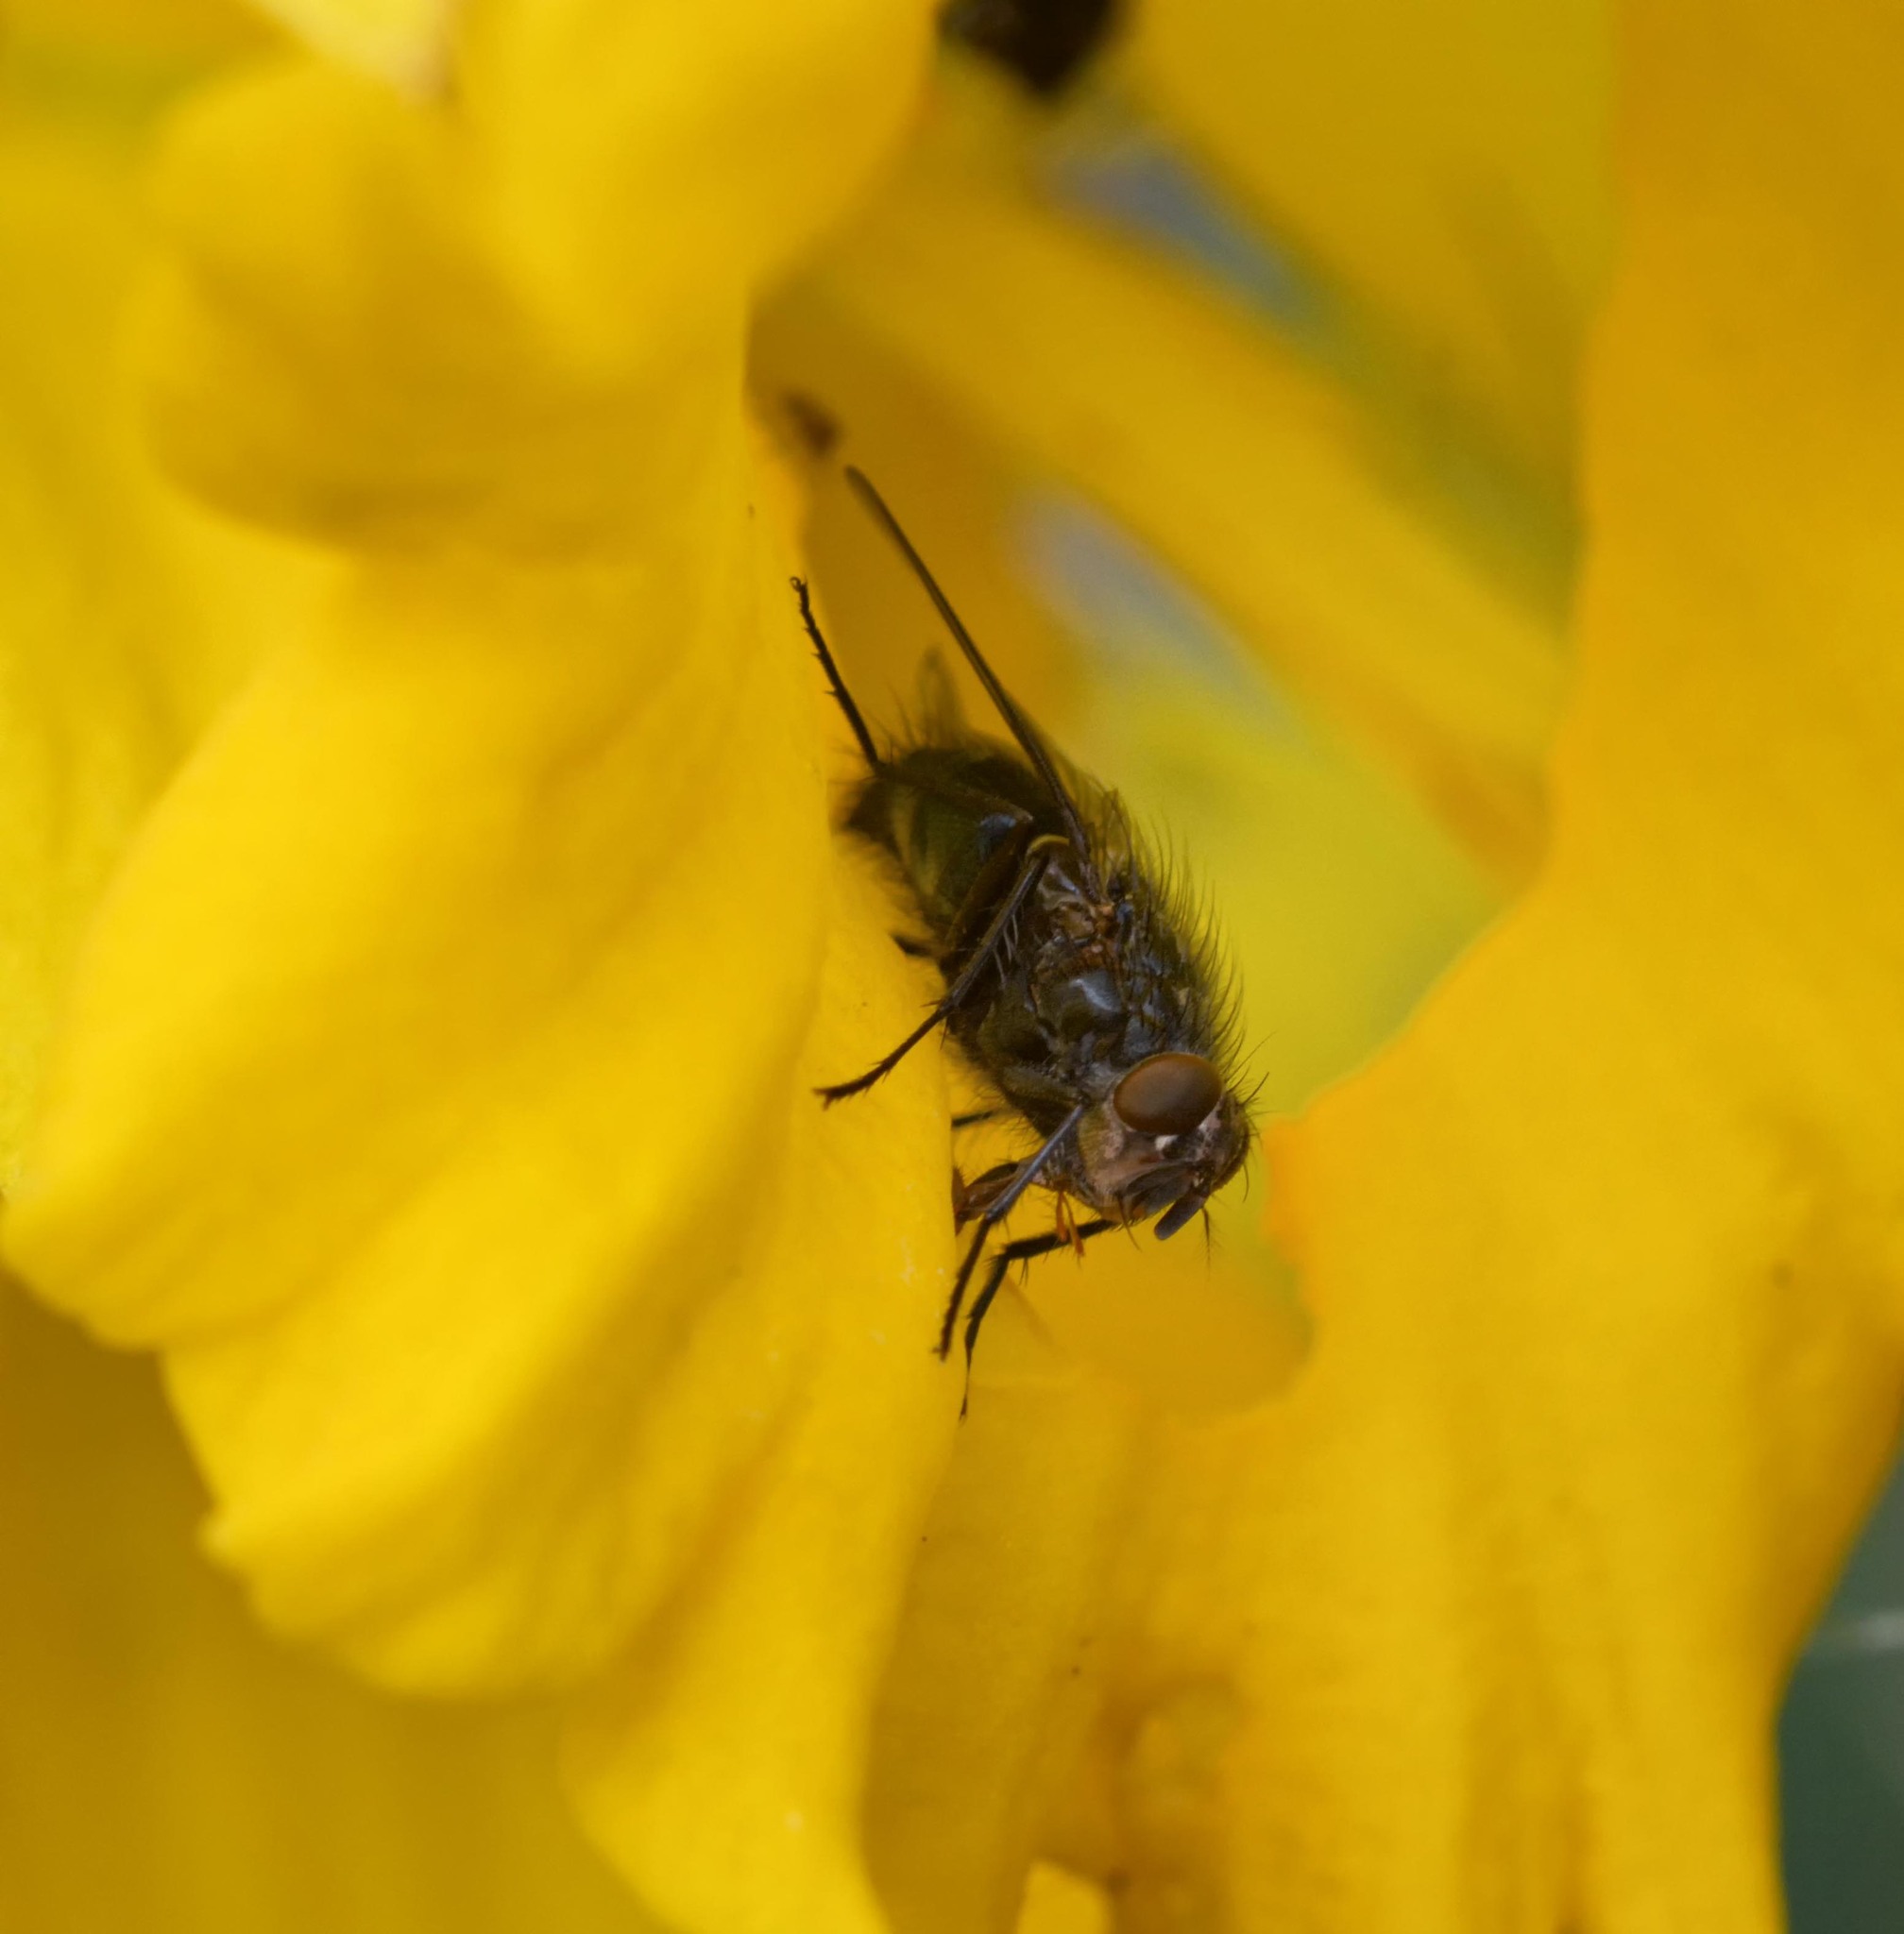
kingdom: Animalia
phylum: Arthropoda
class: Insecta
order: Diptera
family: Calliphoridae
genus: Calliphora
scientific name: Calliphora vicina
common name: Common blow flie
